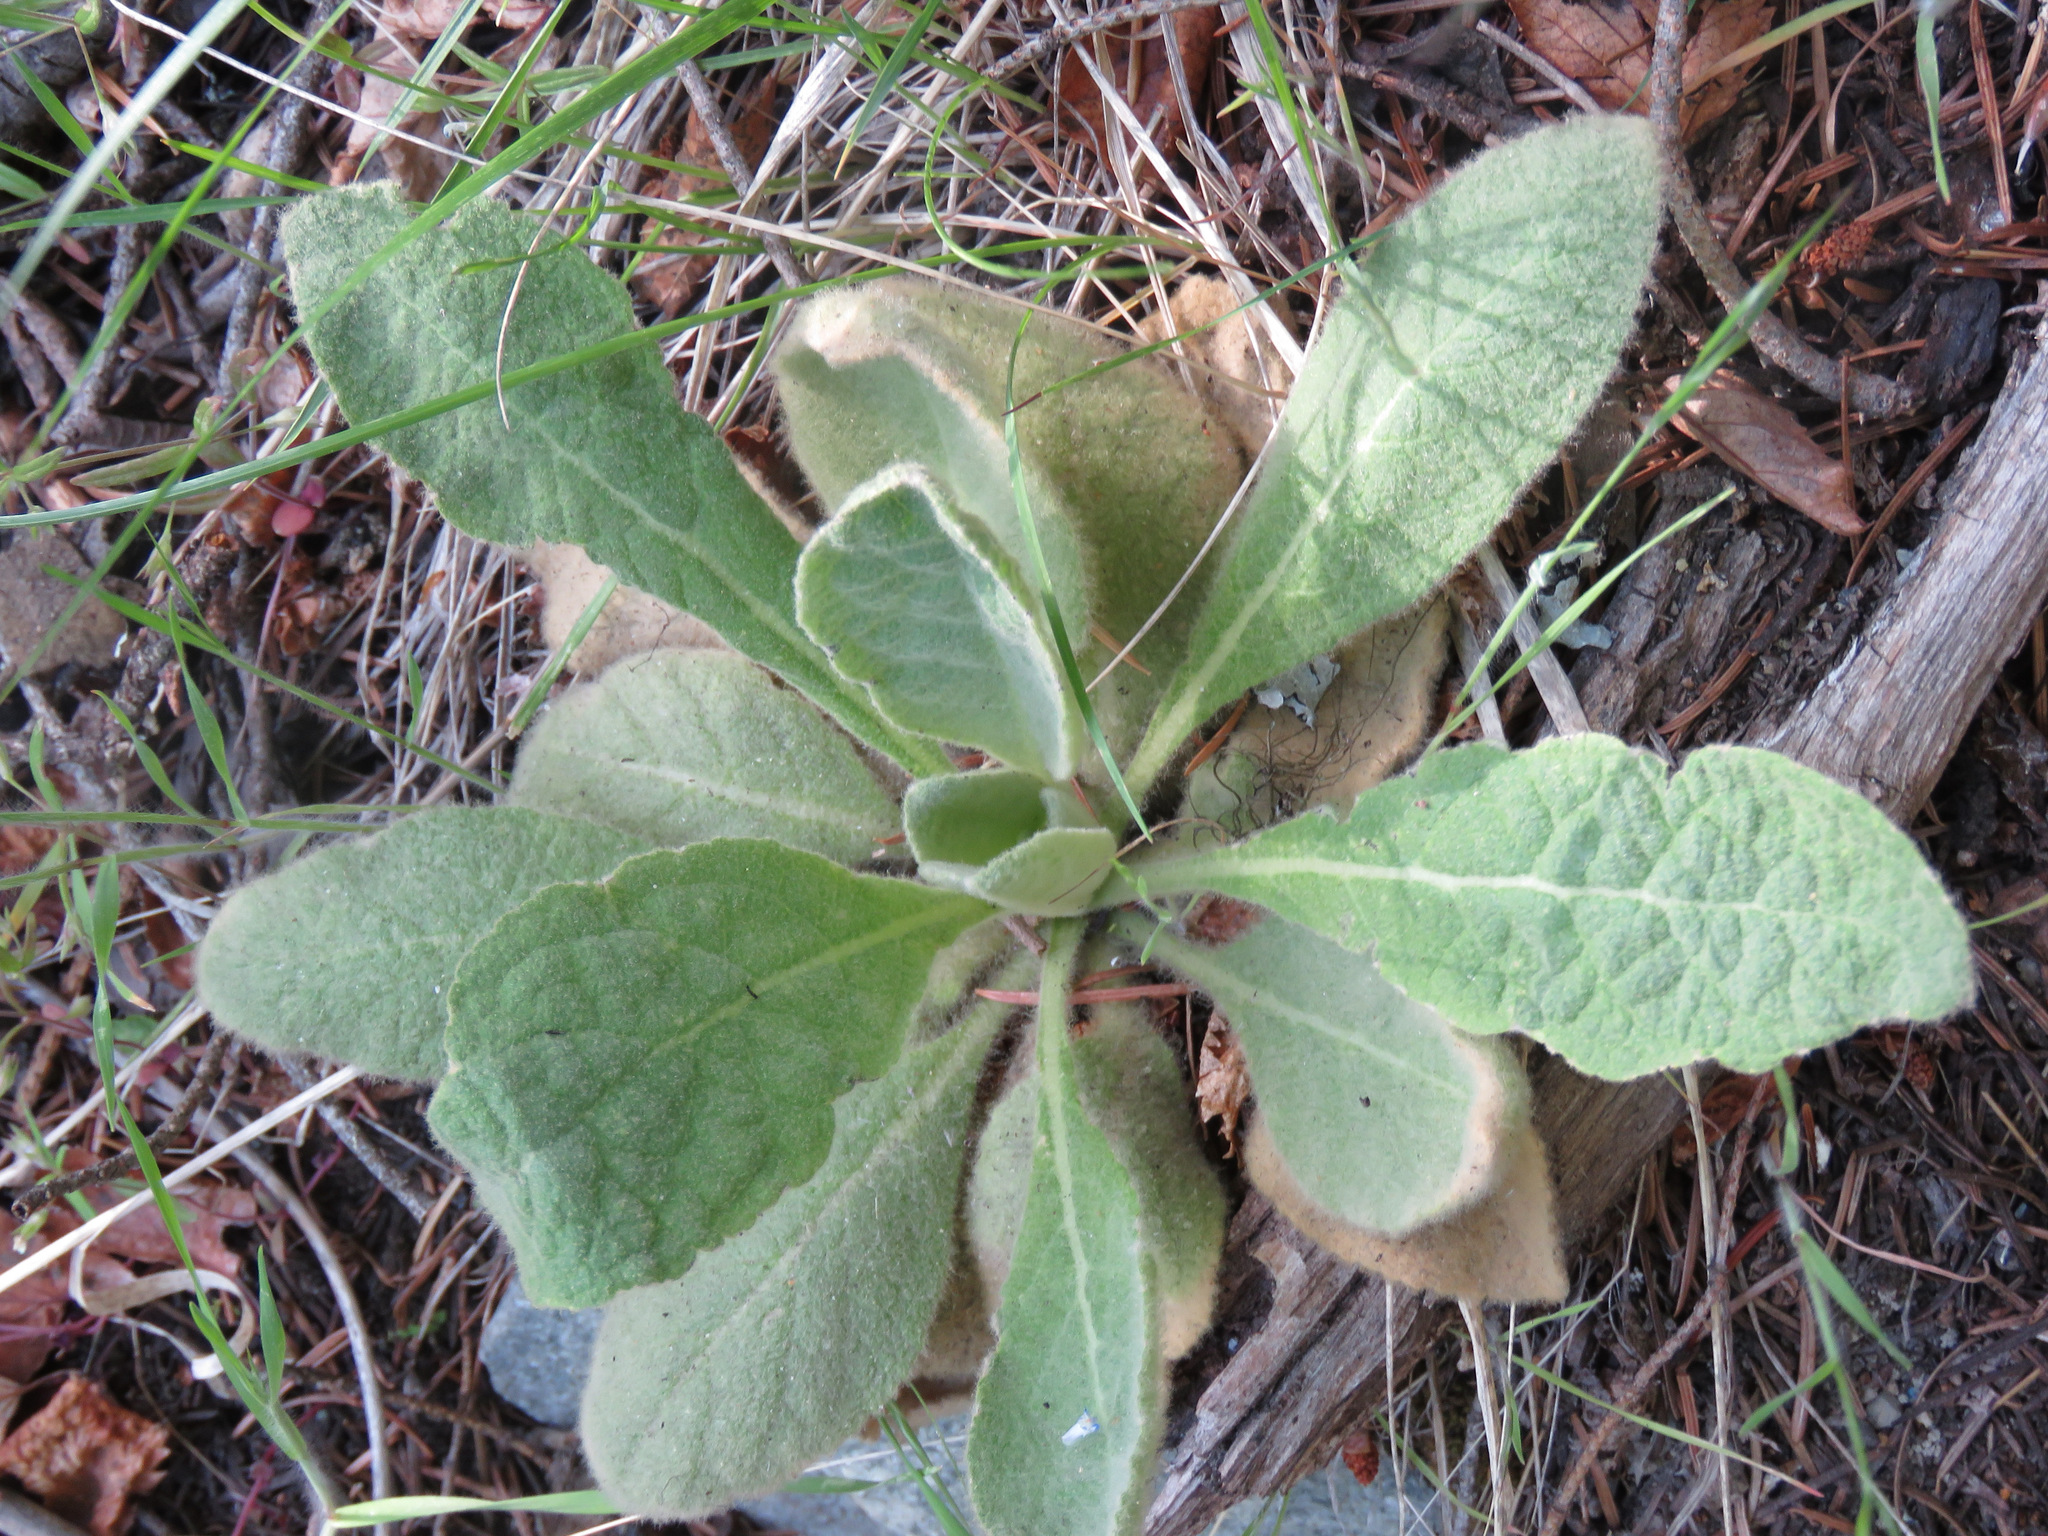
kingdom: Plantae
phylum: Tracheophyta
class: Magnoliopsida
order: Lamiales
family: Scrophulariaceae
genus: Verbascum
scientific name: Verbascum thapsus
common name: Common mullein
